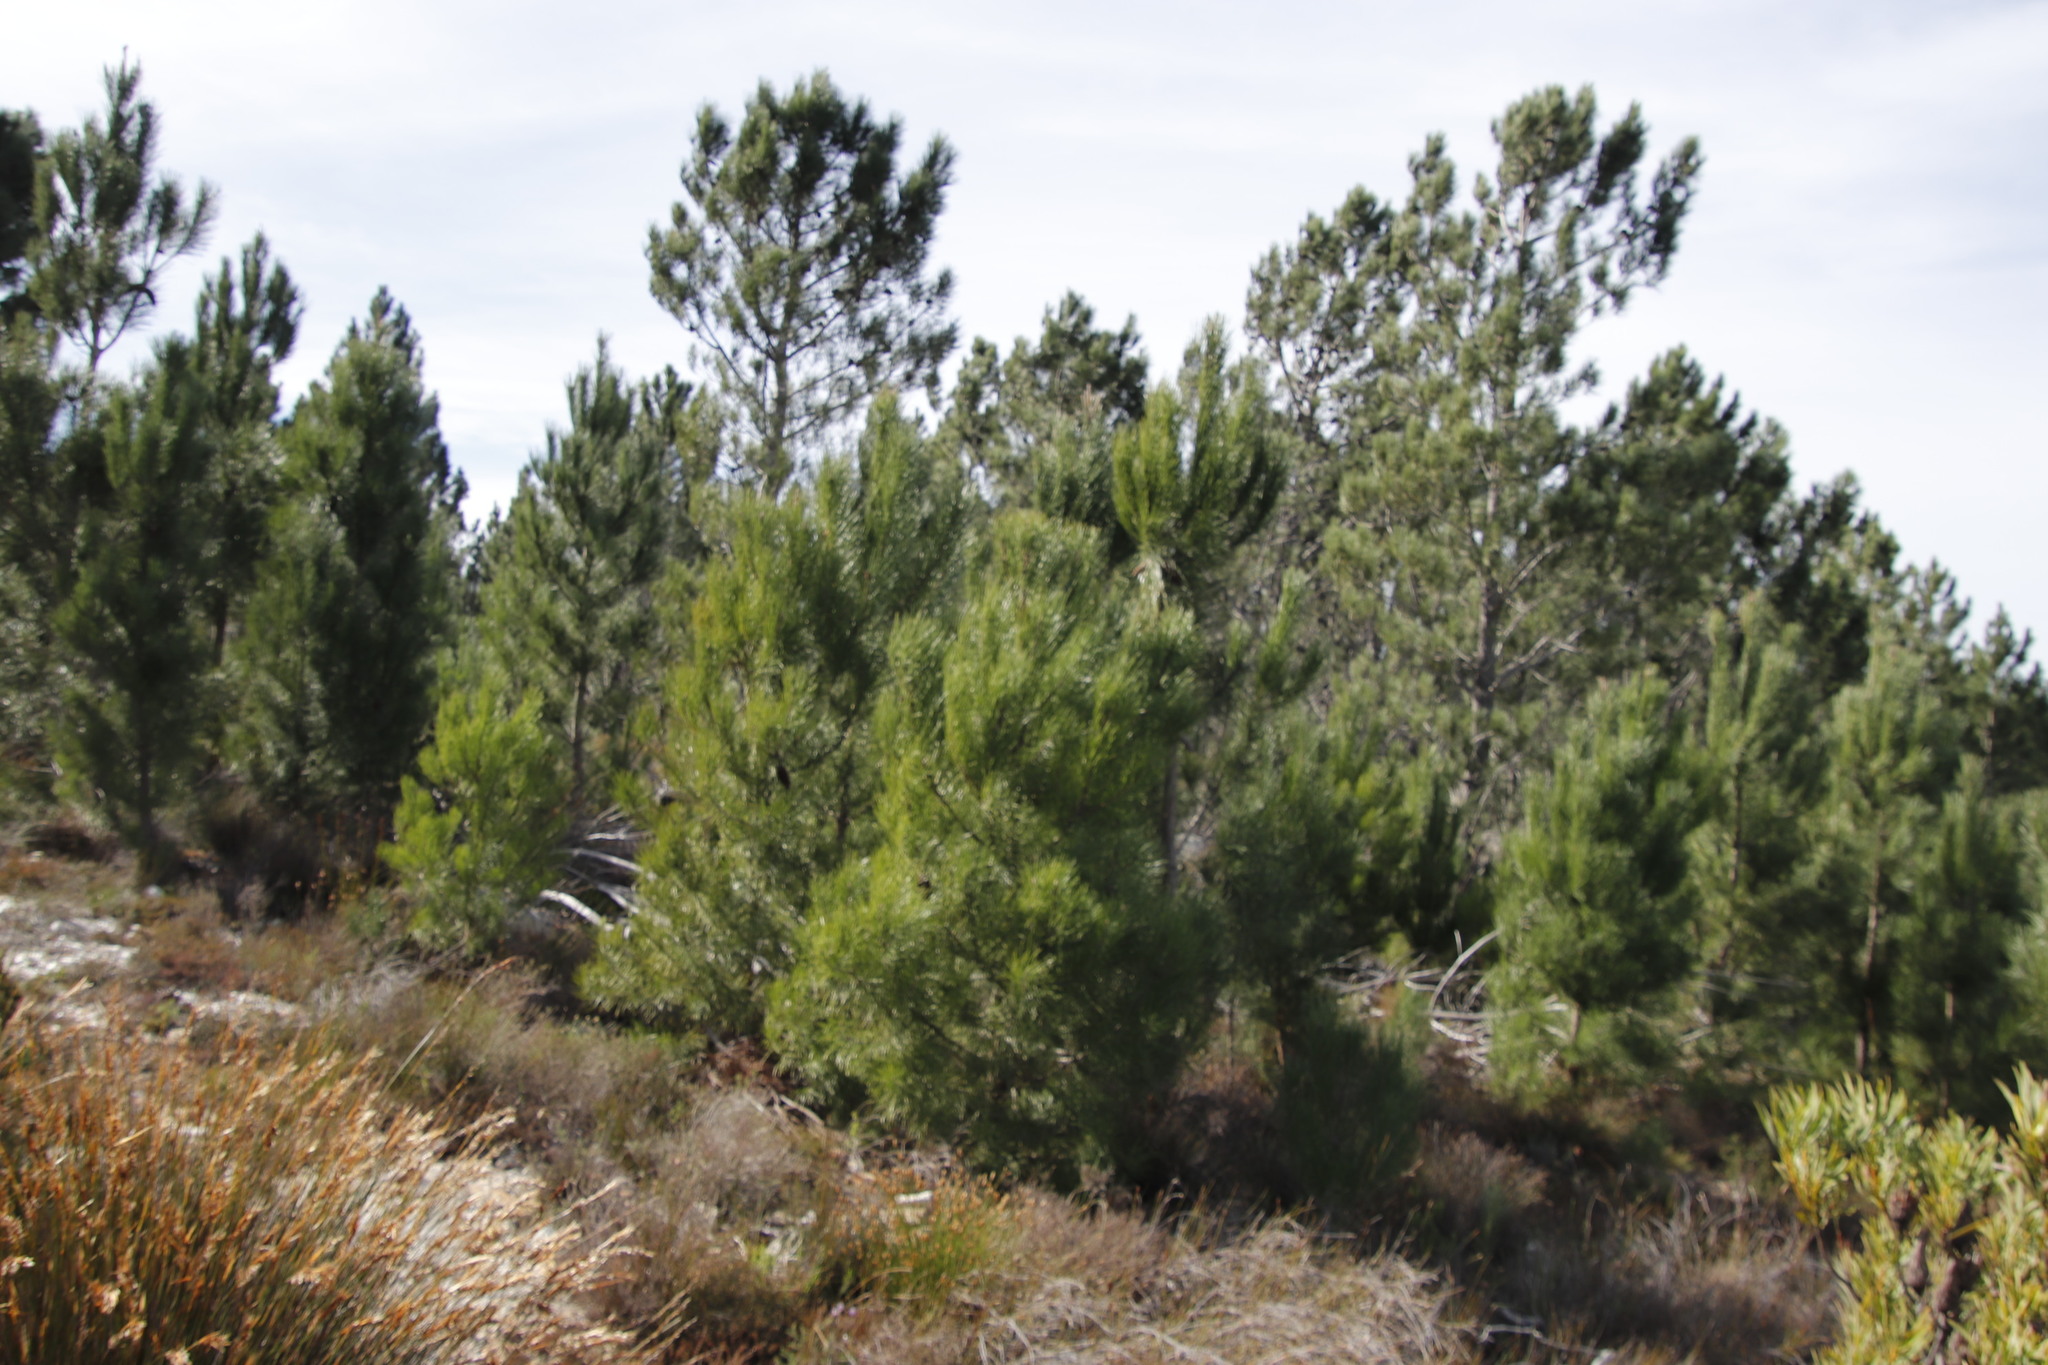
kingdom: Plantae
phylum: Tracheophyta
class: Pinopsida
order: Pinales
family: Pinaceae
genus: Pinus
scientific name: Pinus pinaster
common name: Maritime pine
